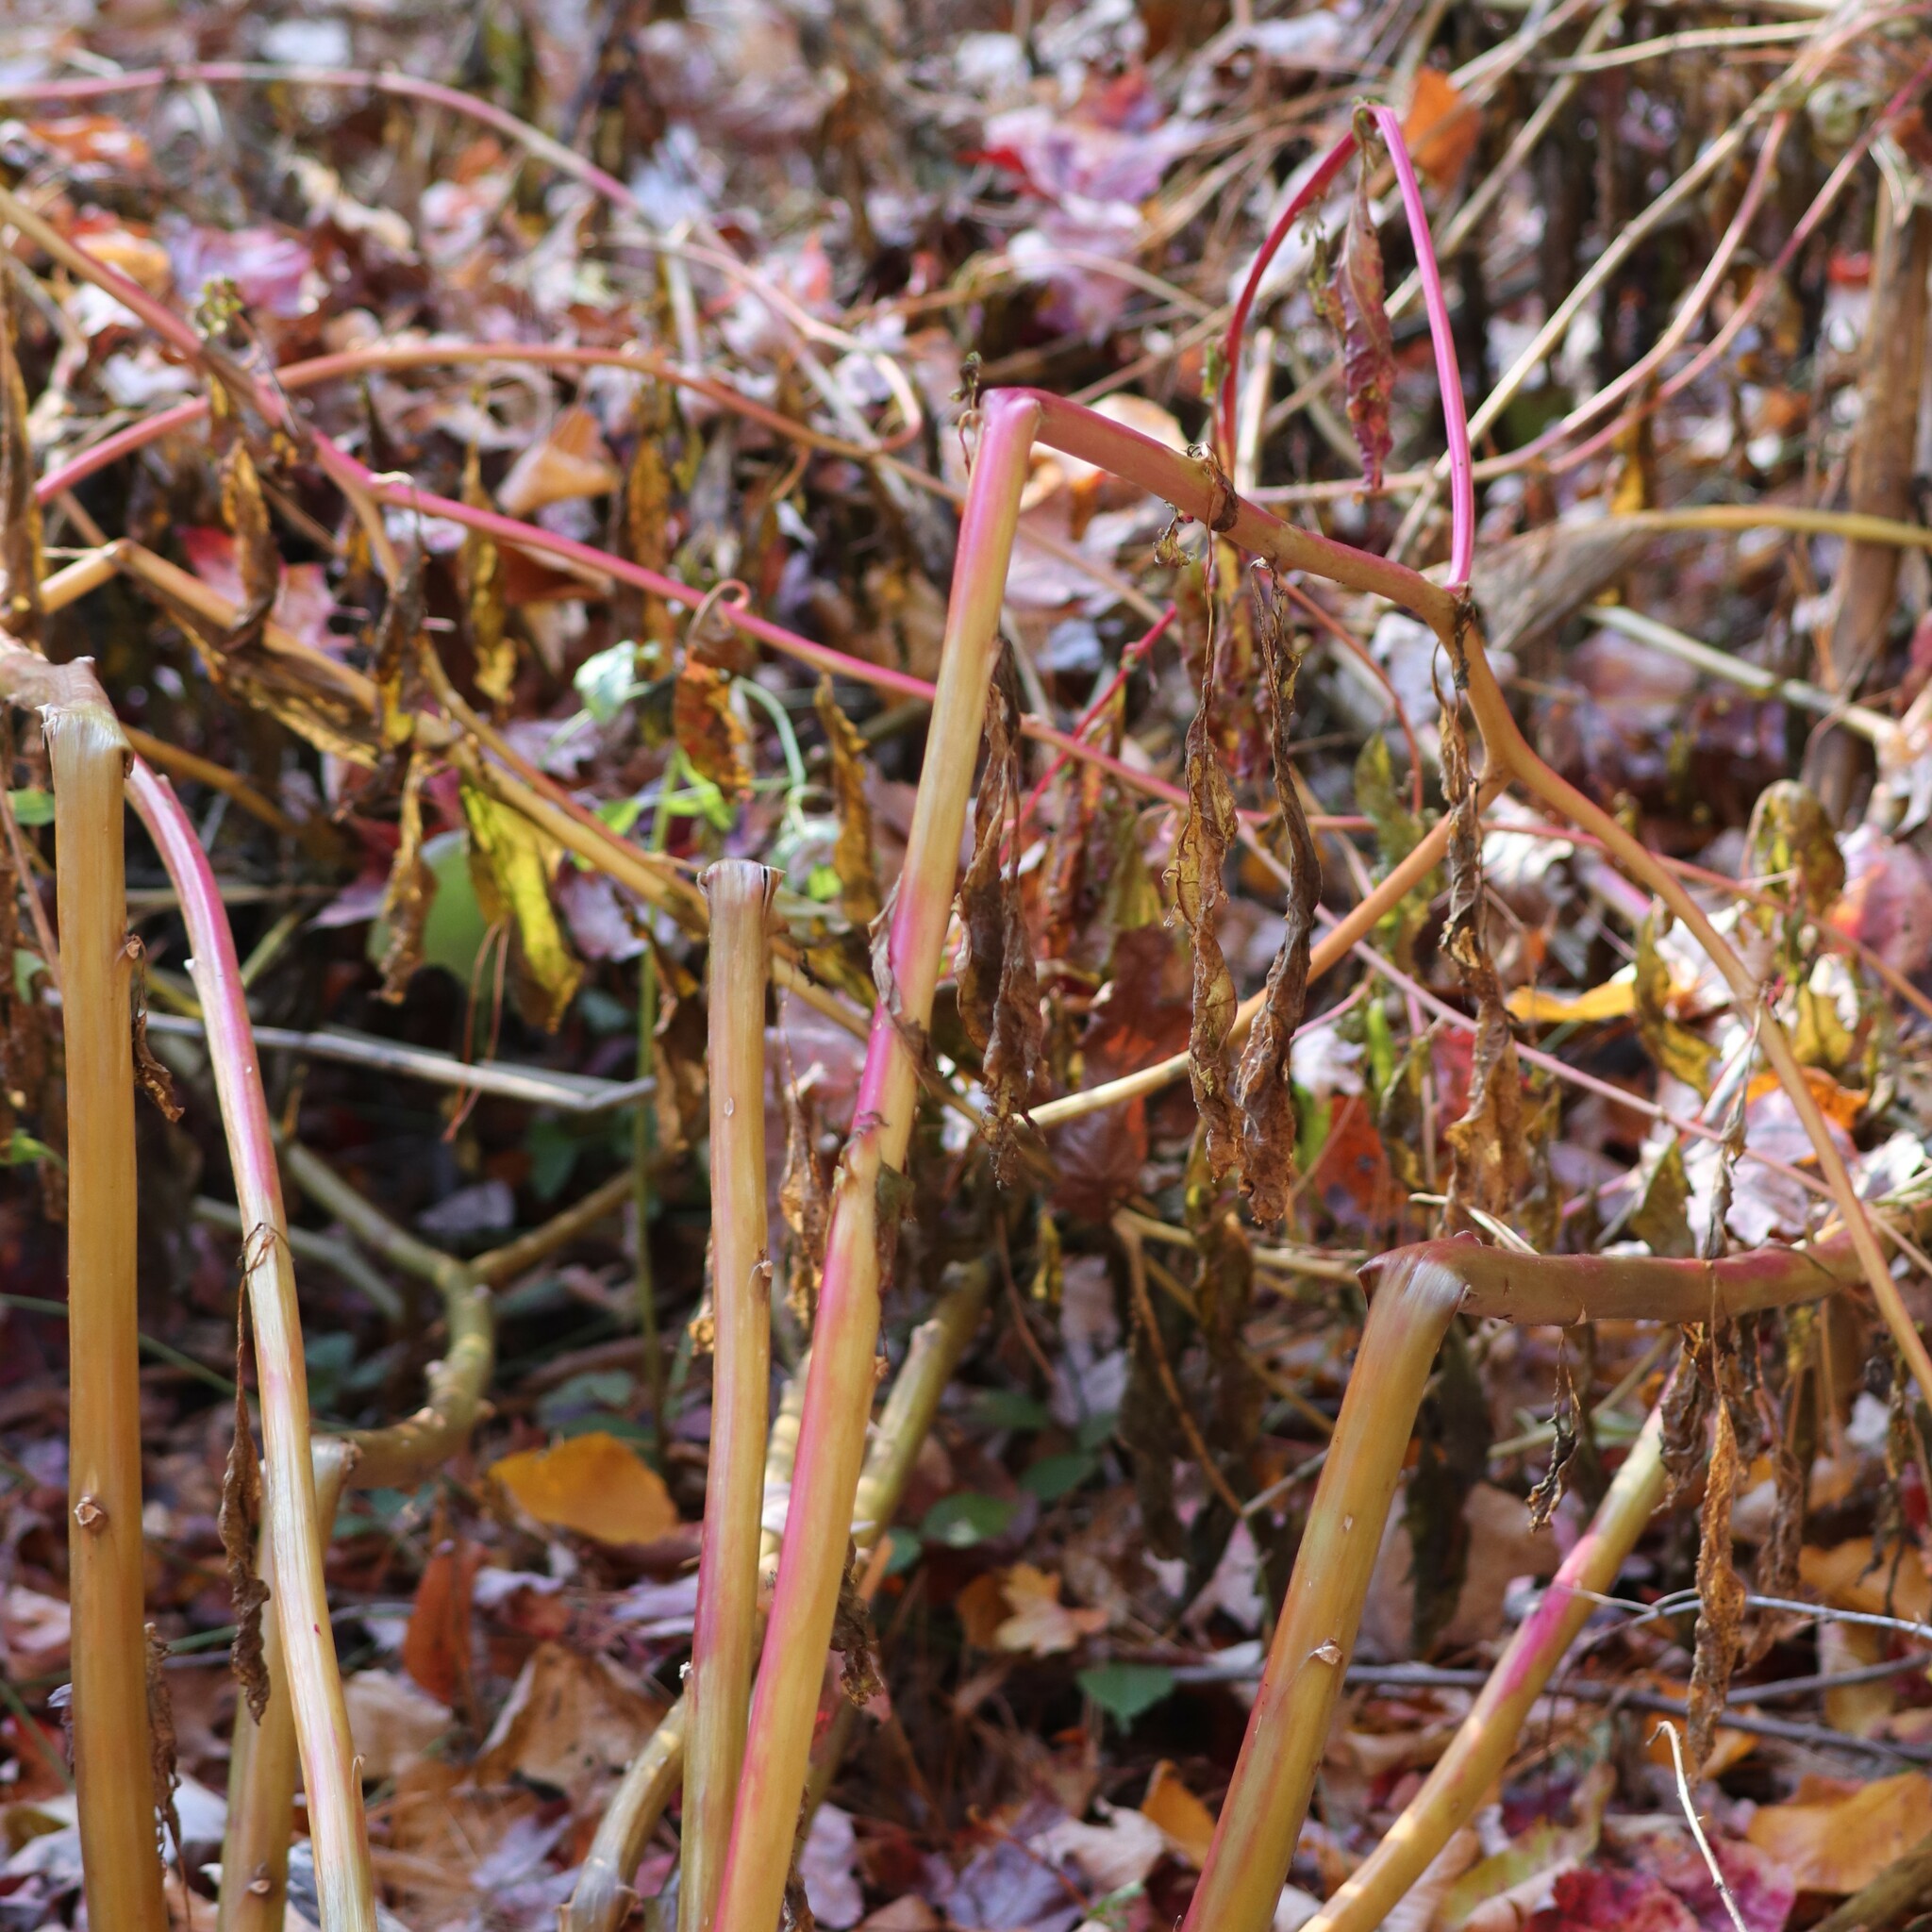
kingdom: Plantae
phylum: Tracheophyta
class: Magnoliopsida
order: Caryophyllales
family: Phytolaccaceae
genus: Phytolacca
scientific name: Phytolacca americana
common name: American pokeweed
